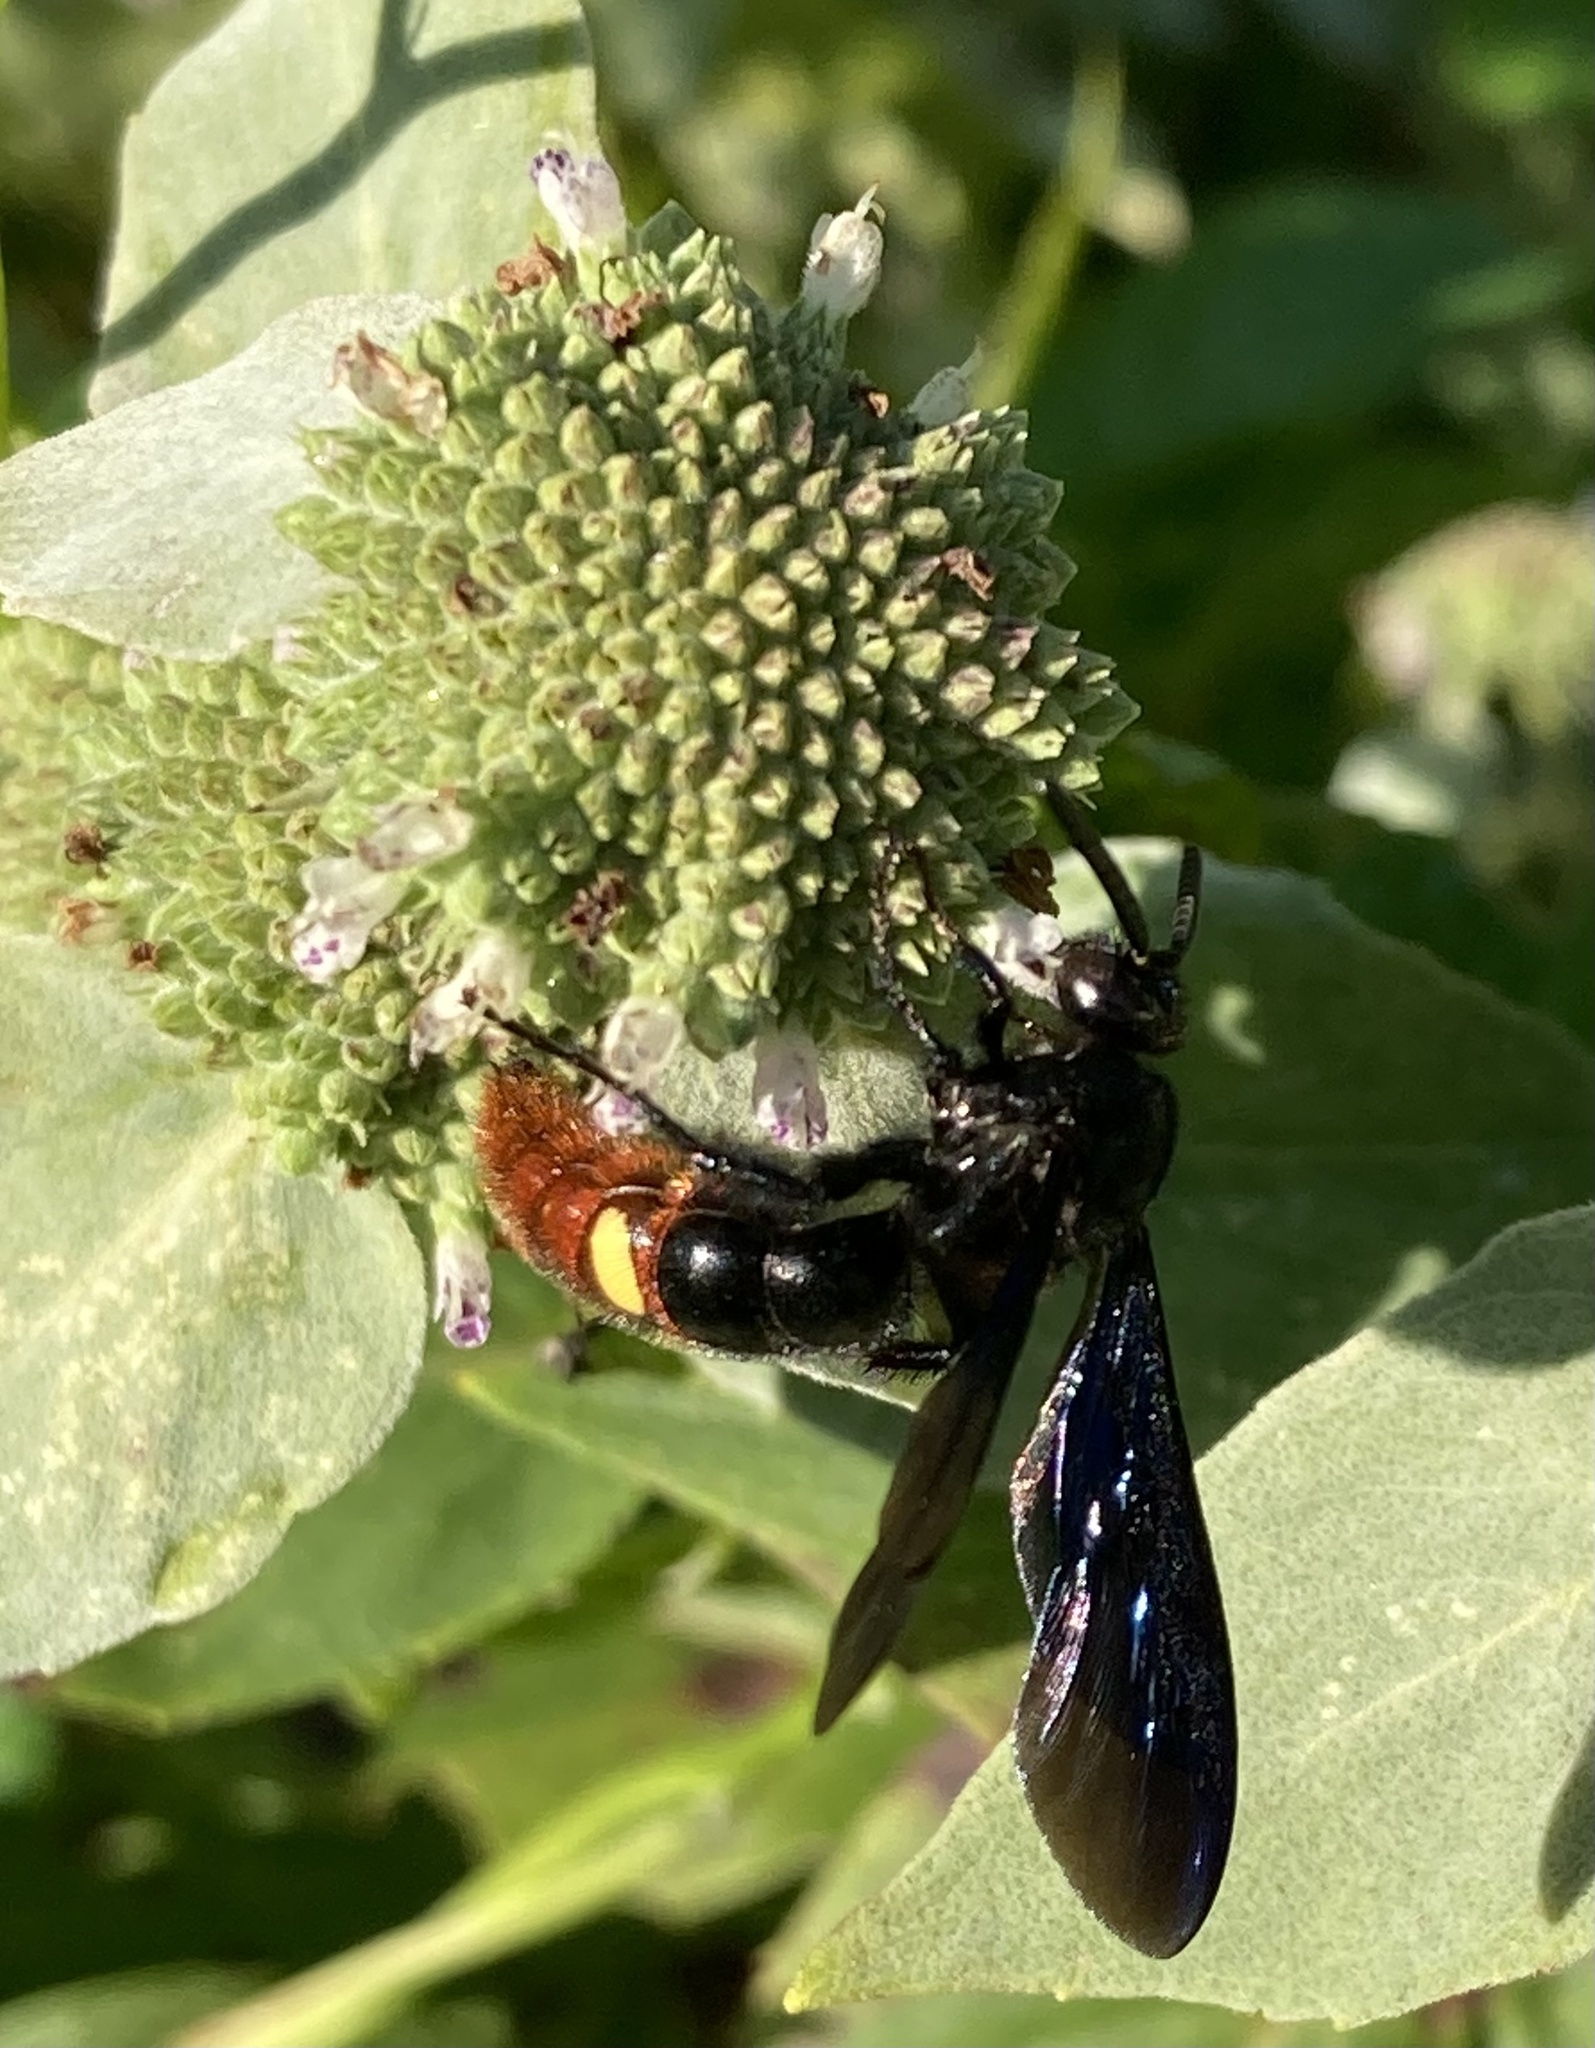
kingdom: Animalia
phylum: Arthropoda
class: Insecta
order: Hymenoptera
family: Scoliidae
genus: Scolia
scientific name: Scolia dubia
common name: Blue-winged scoliid wasp
